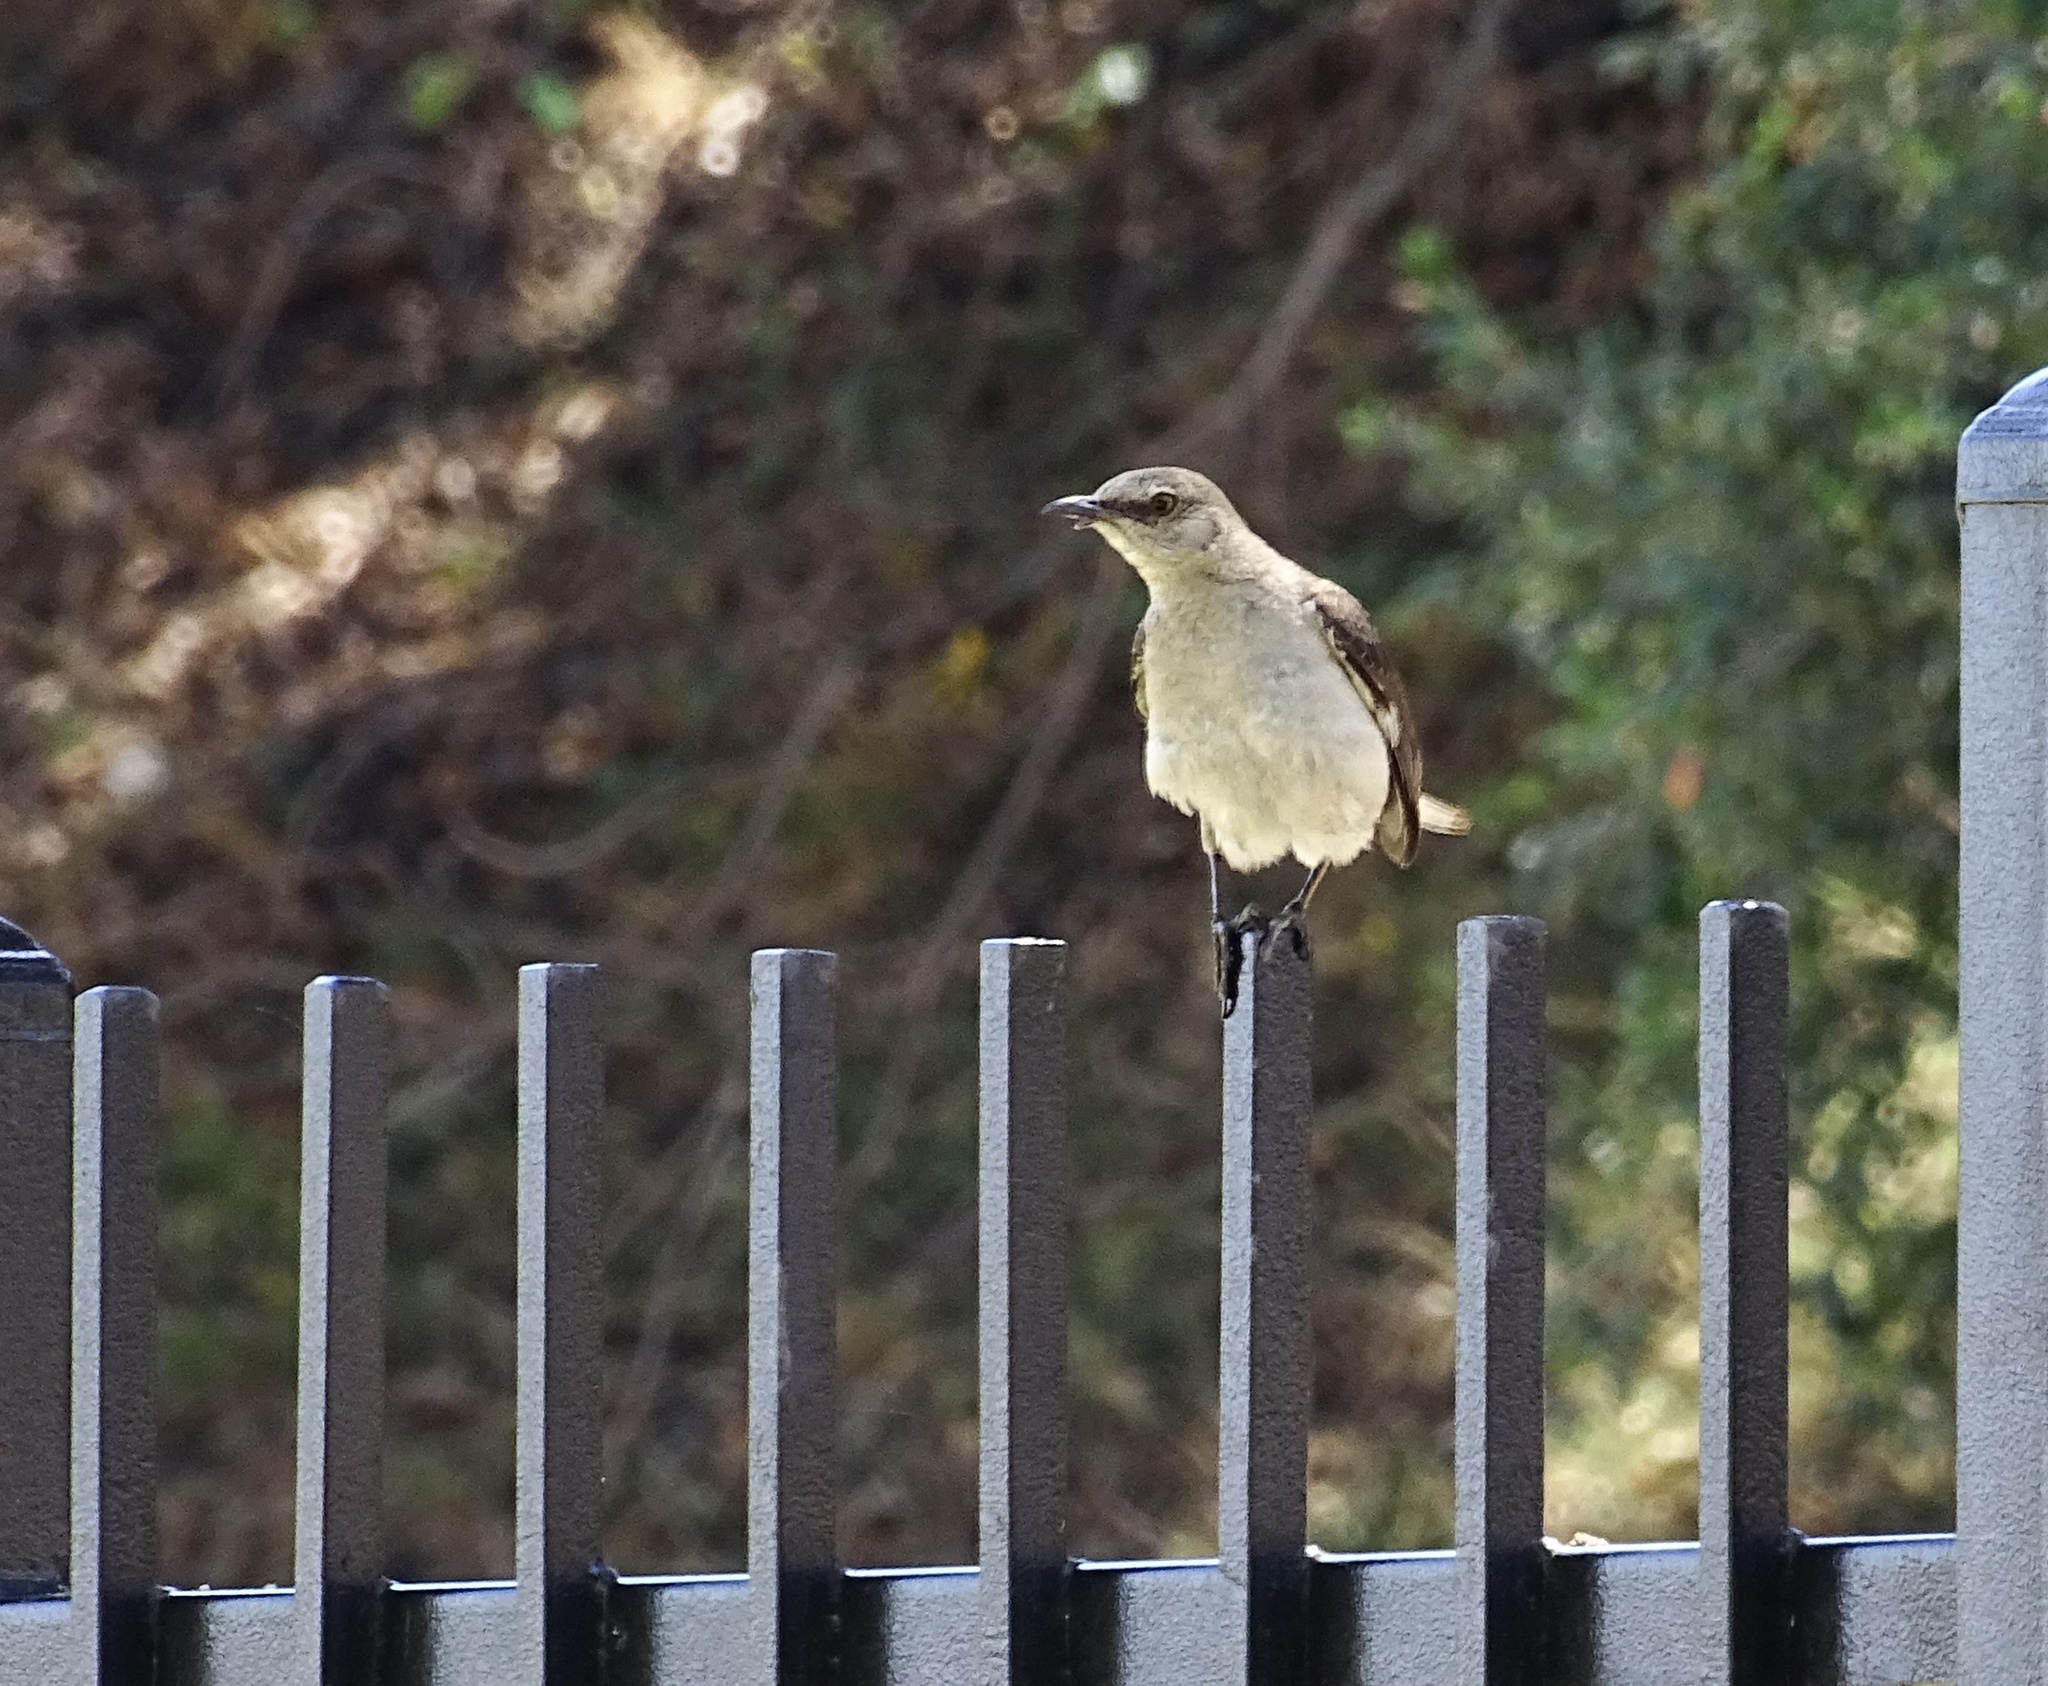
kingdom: Animalia
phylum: Chordata
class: Aves
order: Passeriformes
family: Mimidae
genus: Mimus
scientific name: Mimus polyglottos
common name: Northern mockingbird
